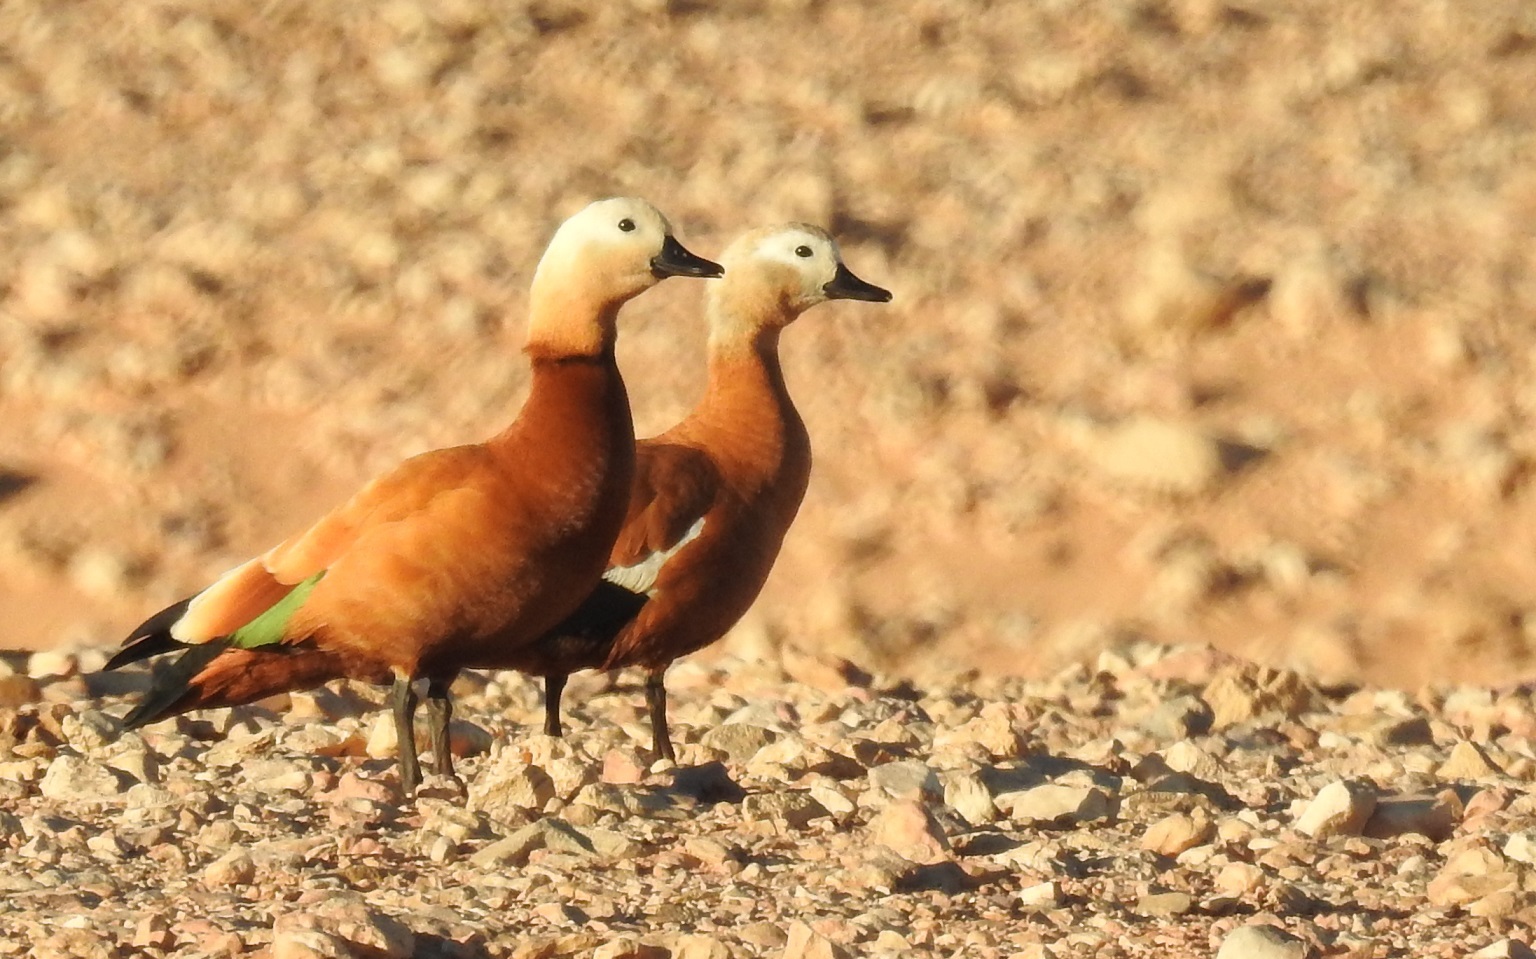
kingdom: Animalia
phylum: Chordata
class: Aves
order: Anseriformes
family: Anatidae
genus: Tadorna
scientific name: Tadorna ferruginea
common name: Ruddy shelduck
